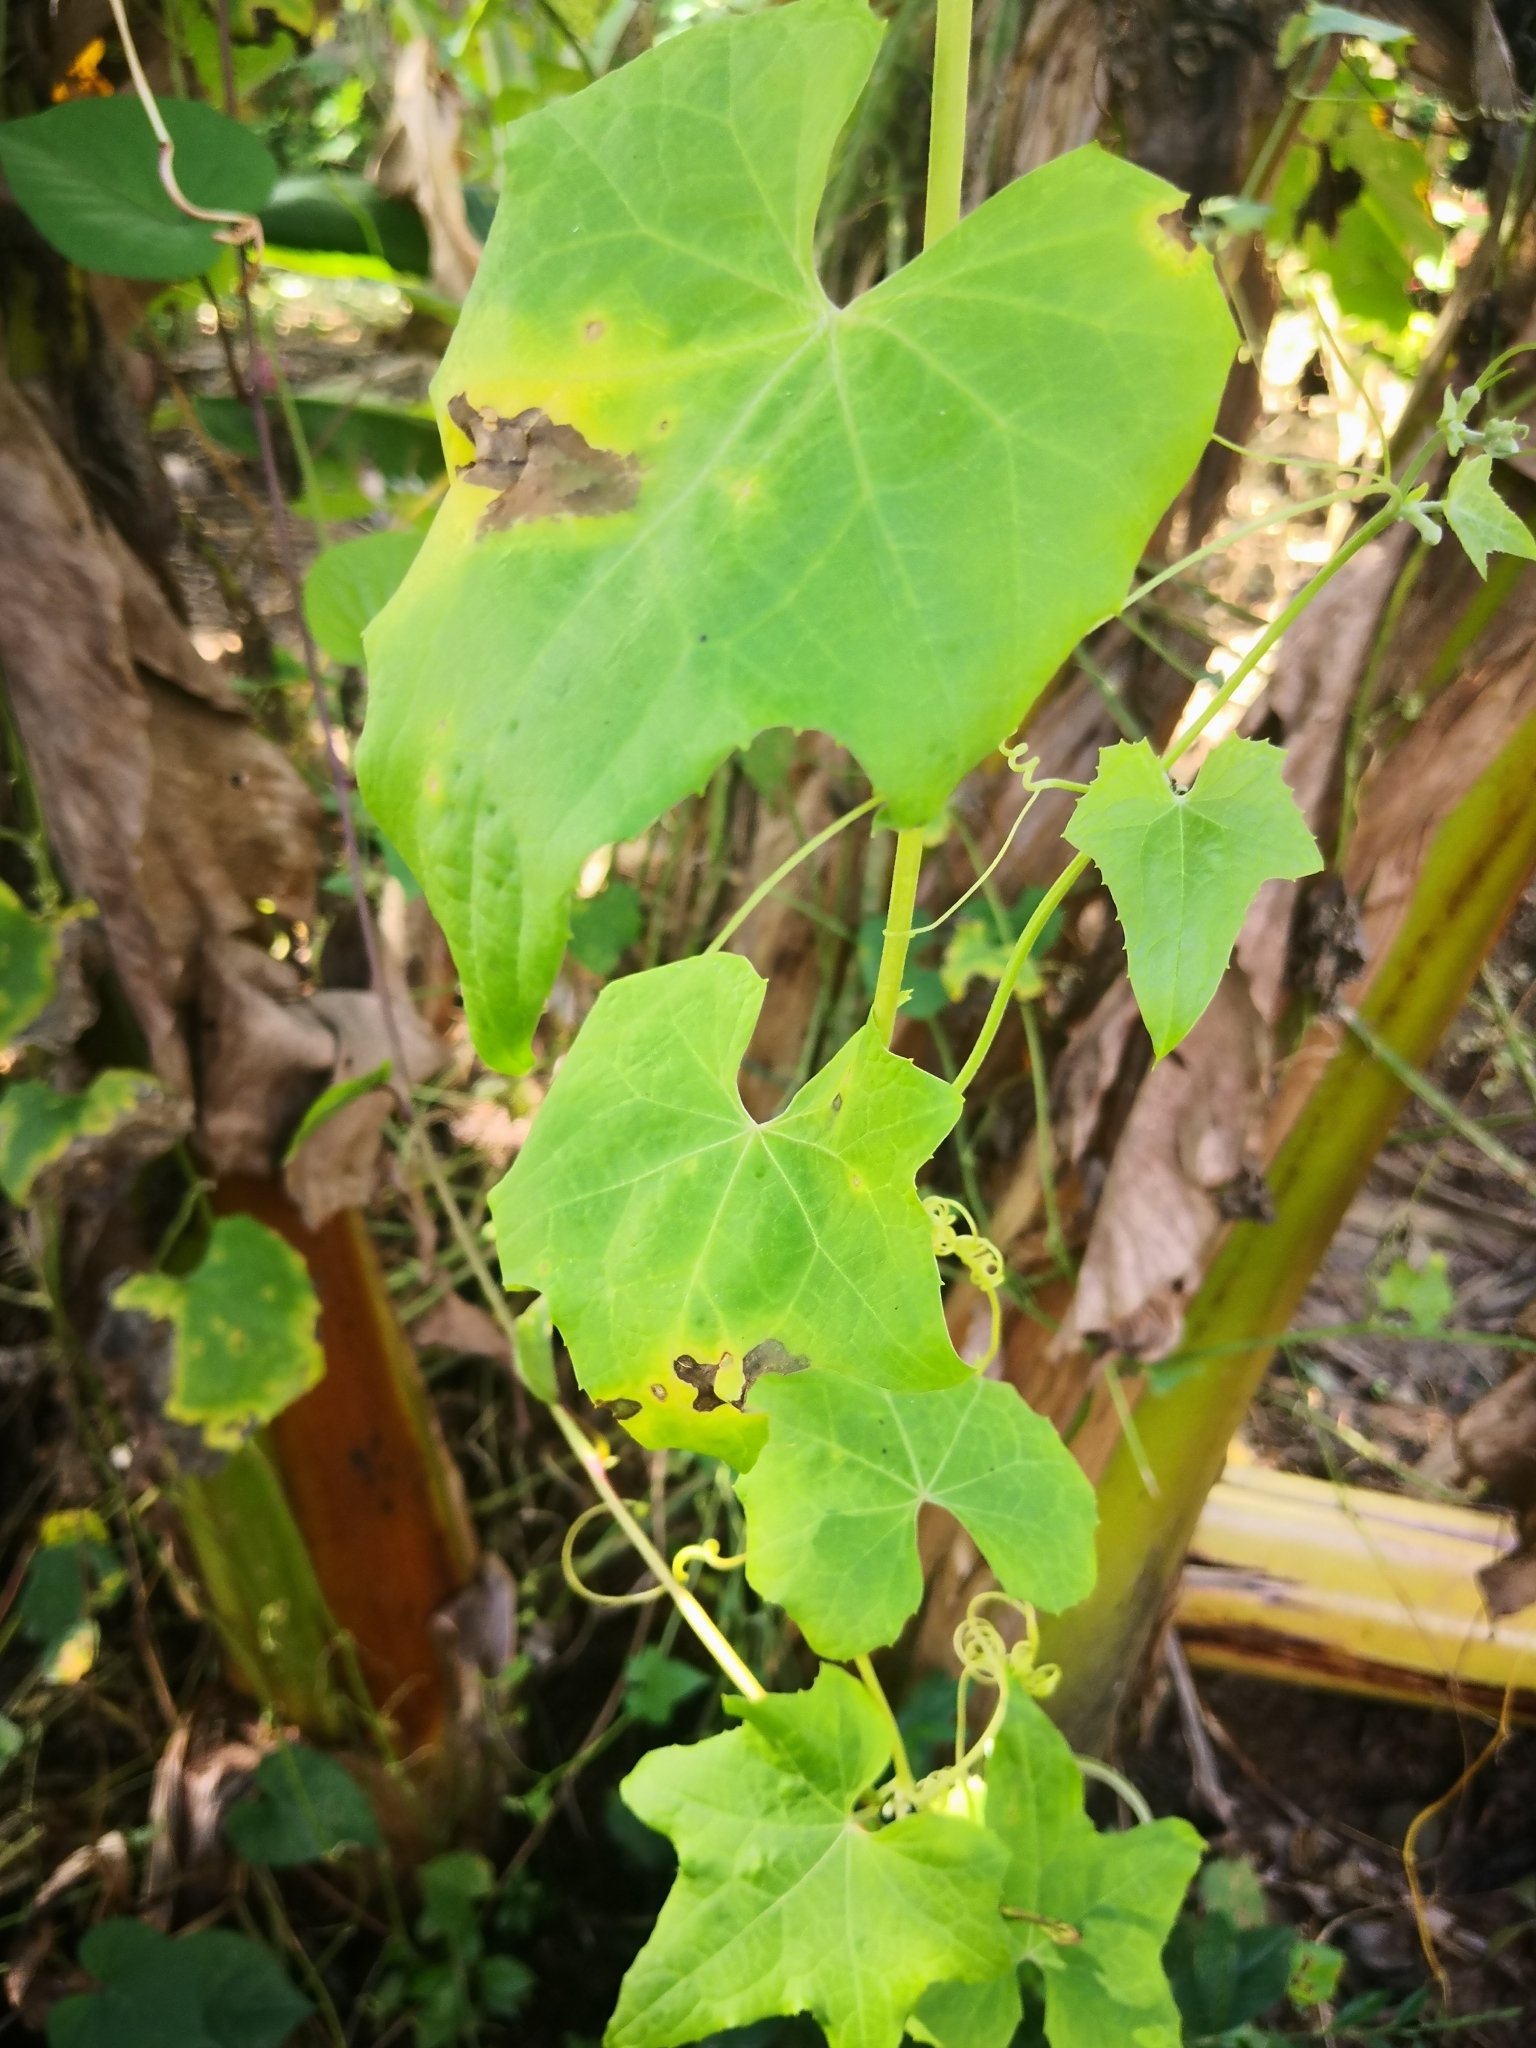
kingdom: Plantae
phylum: Tracheophyta
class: Magnoliopsida
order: Cucurbitales
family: Cucurbitaceae
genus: Luffa
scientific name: Luffa aegyptiaca
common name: Sponge gourd
